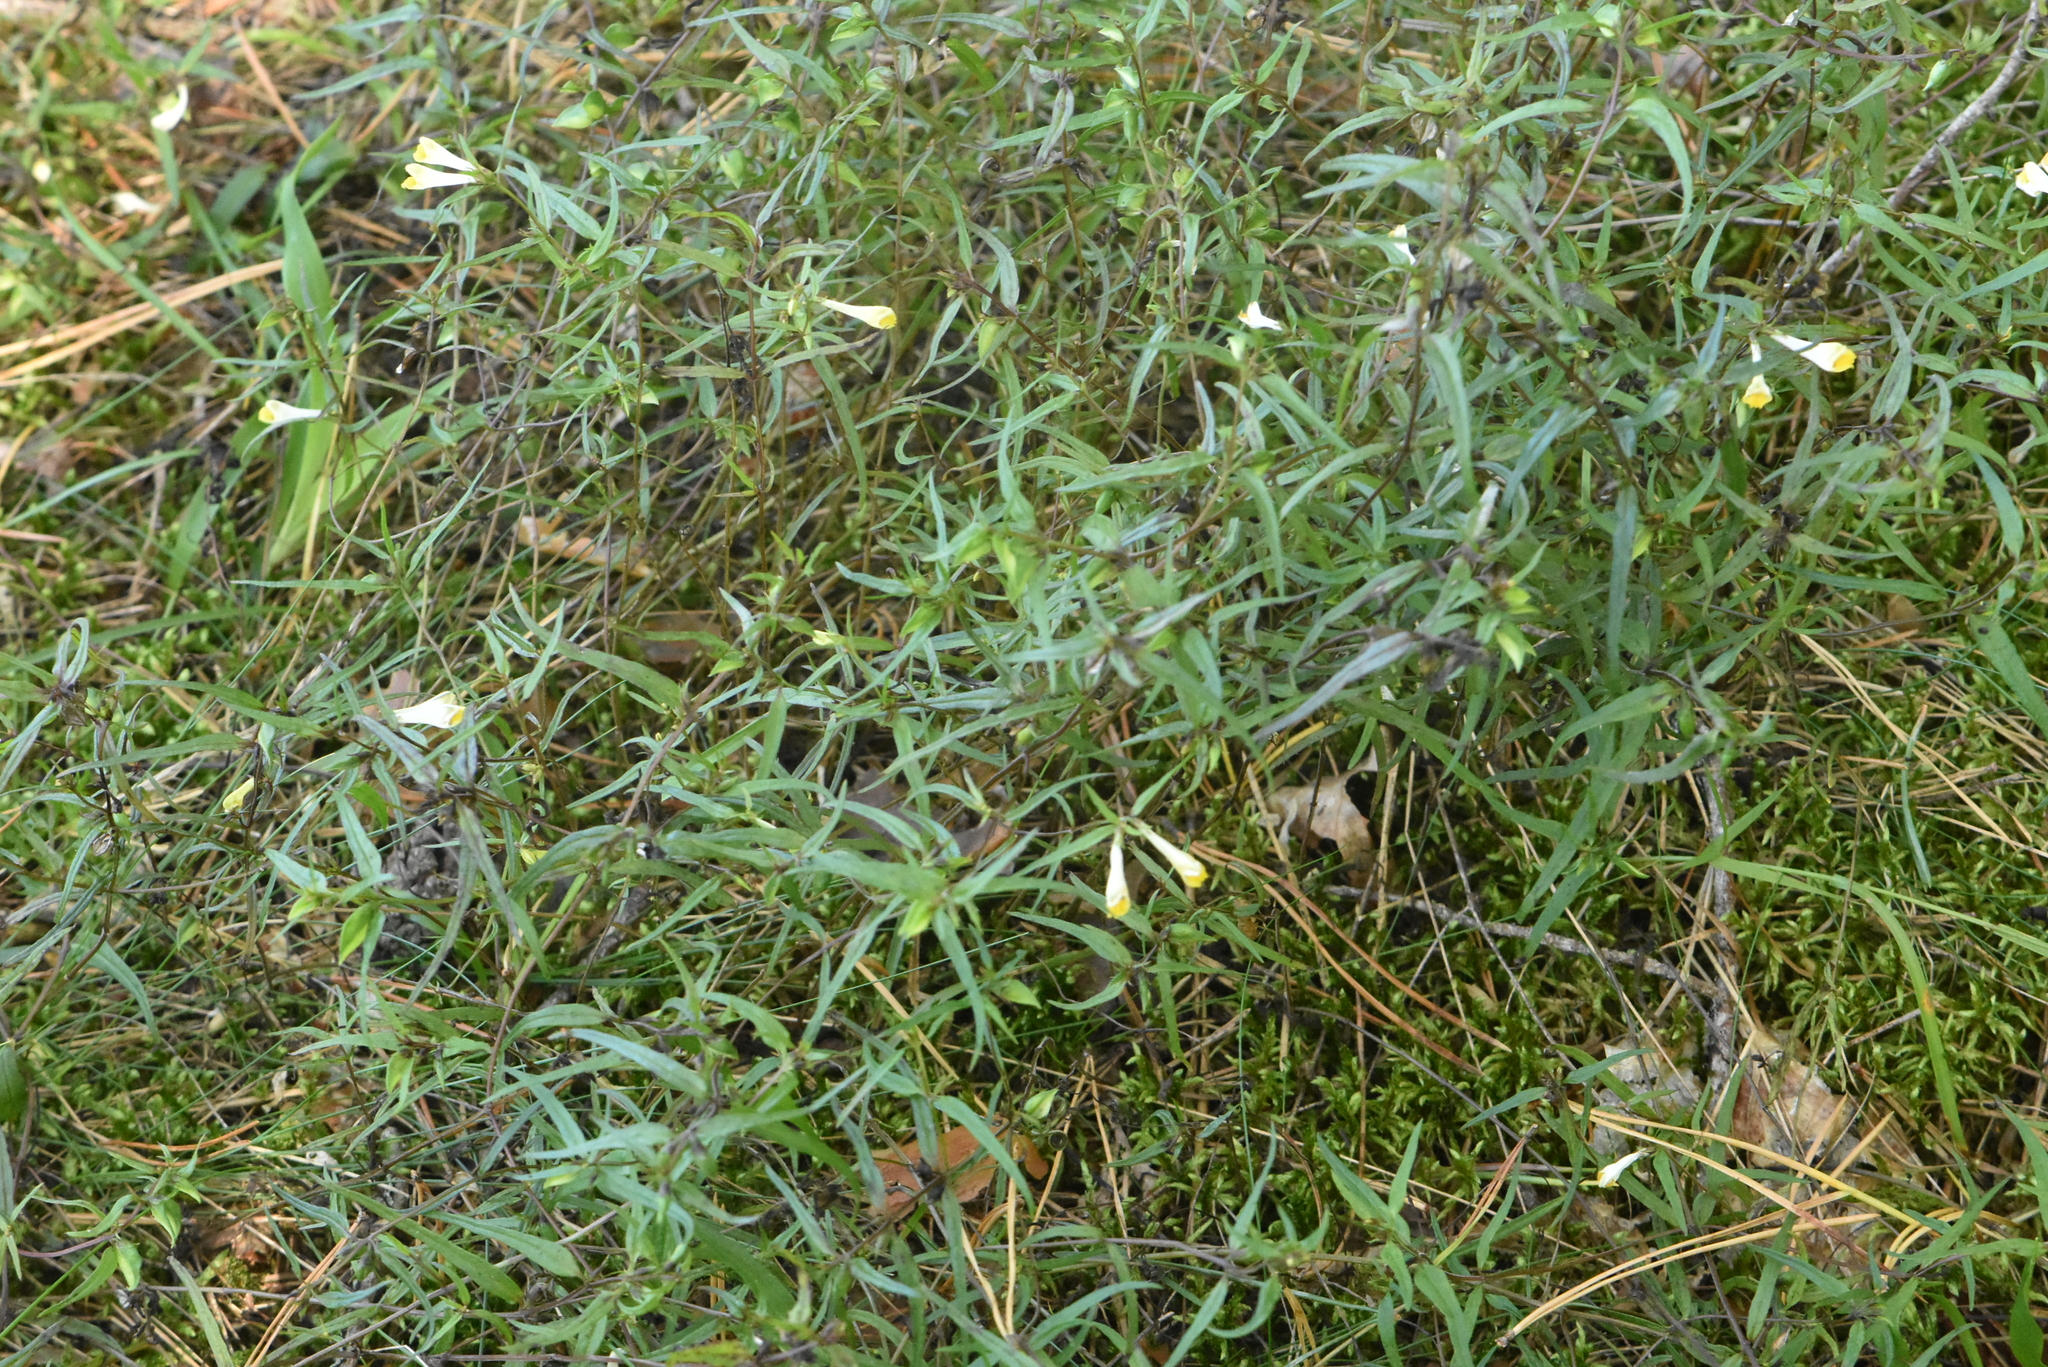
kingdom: Plantae
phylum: Tracheophyta
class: Magnoliopsida
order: Lamiales
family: Orobanchaceae
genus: Melampyrum
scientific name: Melampyrum pratense
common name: Common cow-wheat
